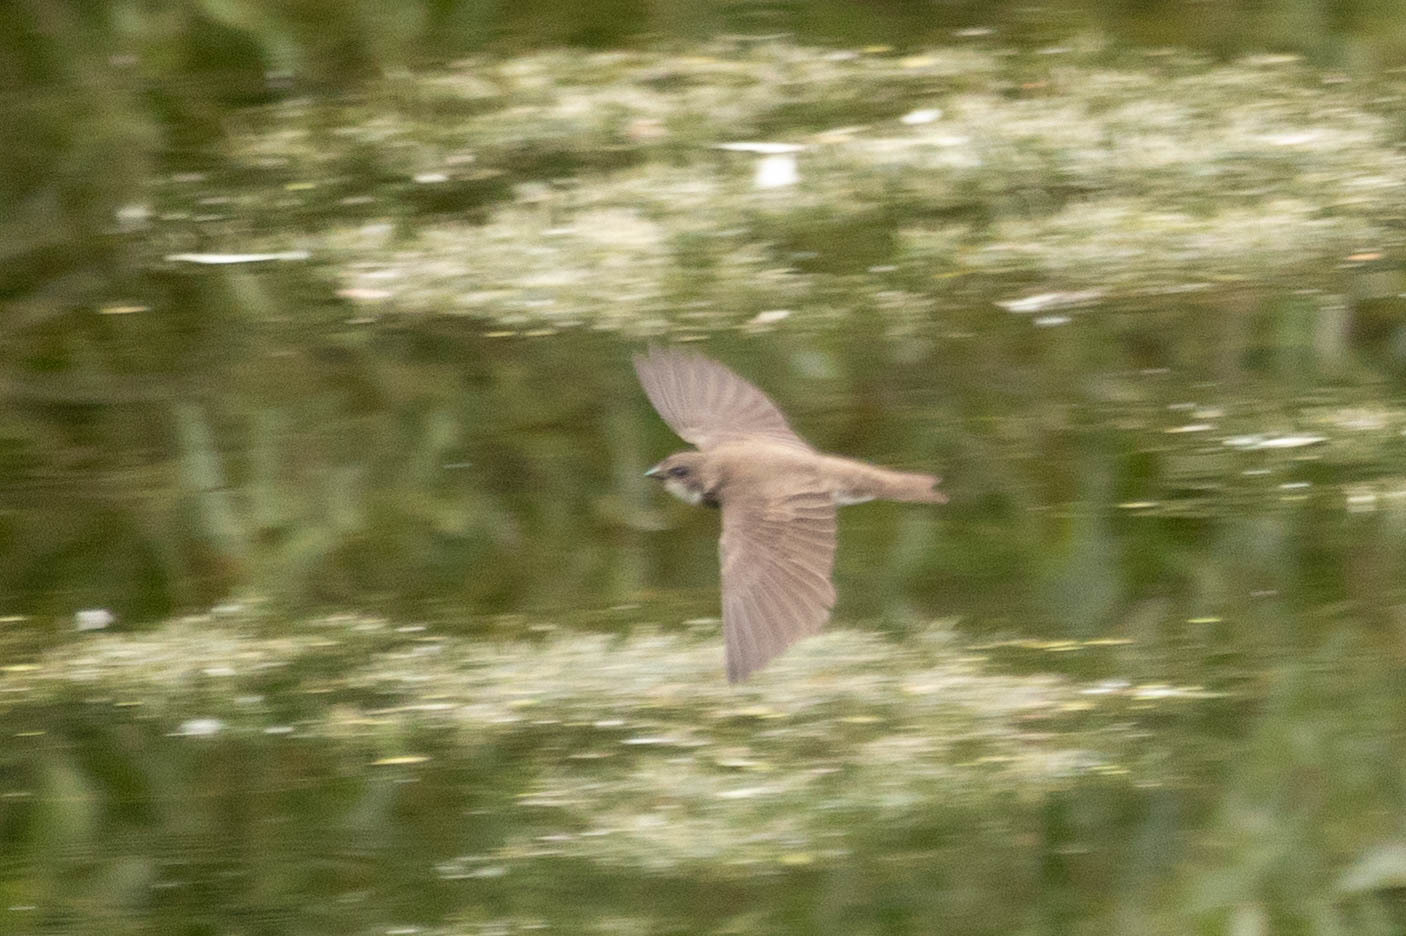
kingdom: Animalia
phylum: Chordata
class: Aves
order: Passeriformes
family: Hirundinidae
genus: Riparia
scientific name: Riparia riparia
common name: Sand martin
